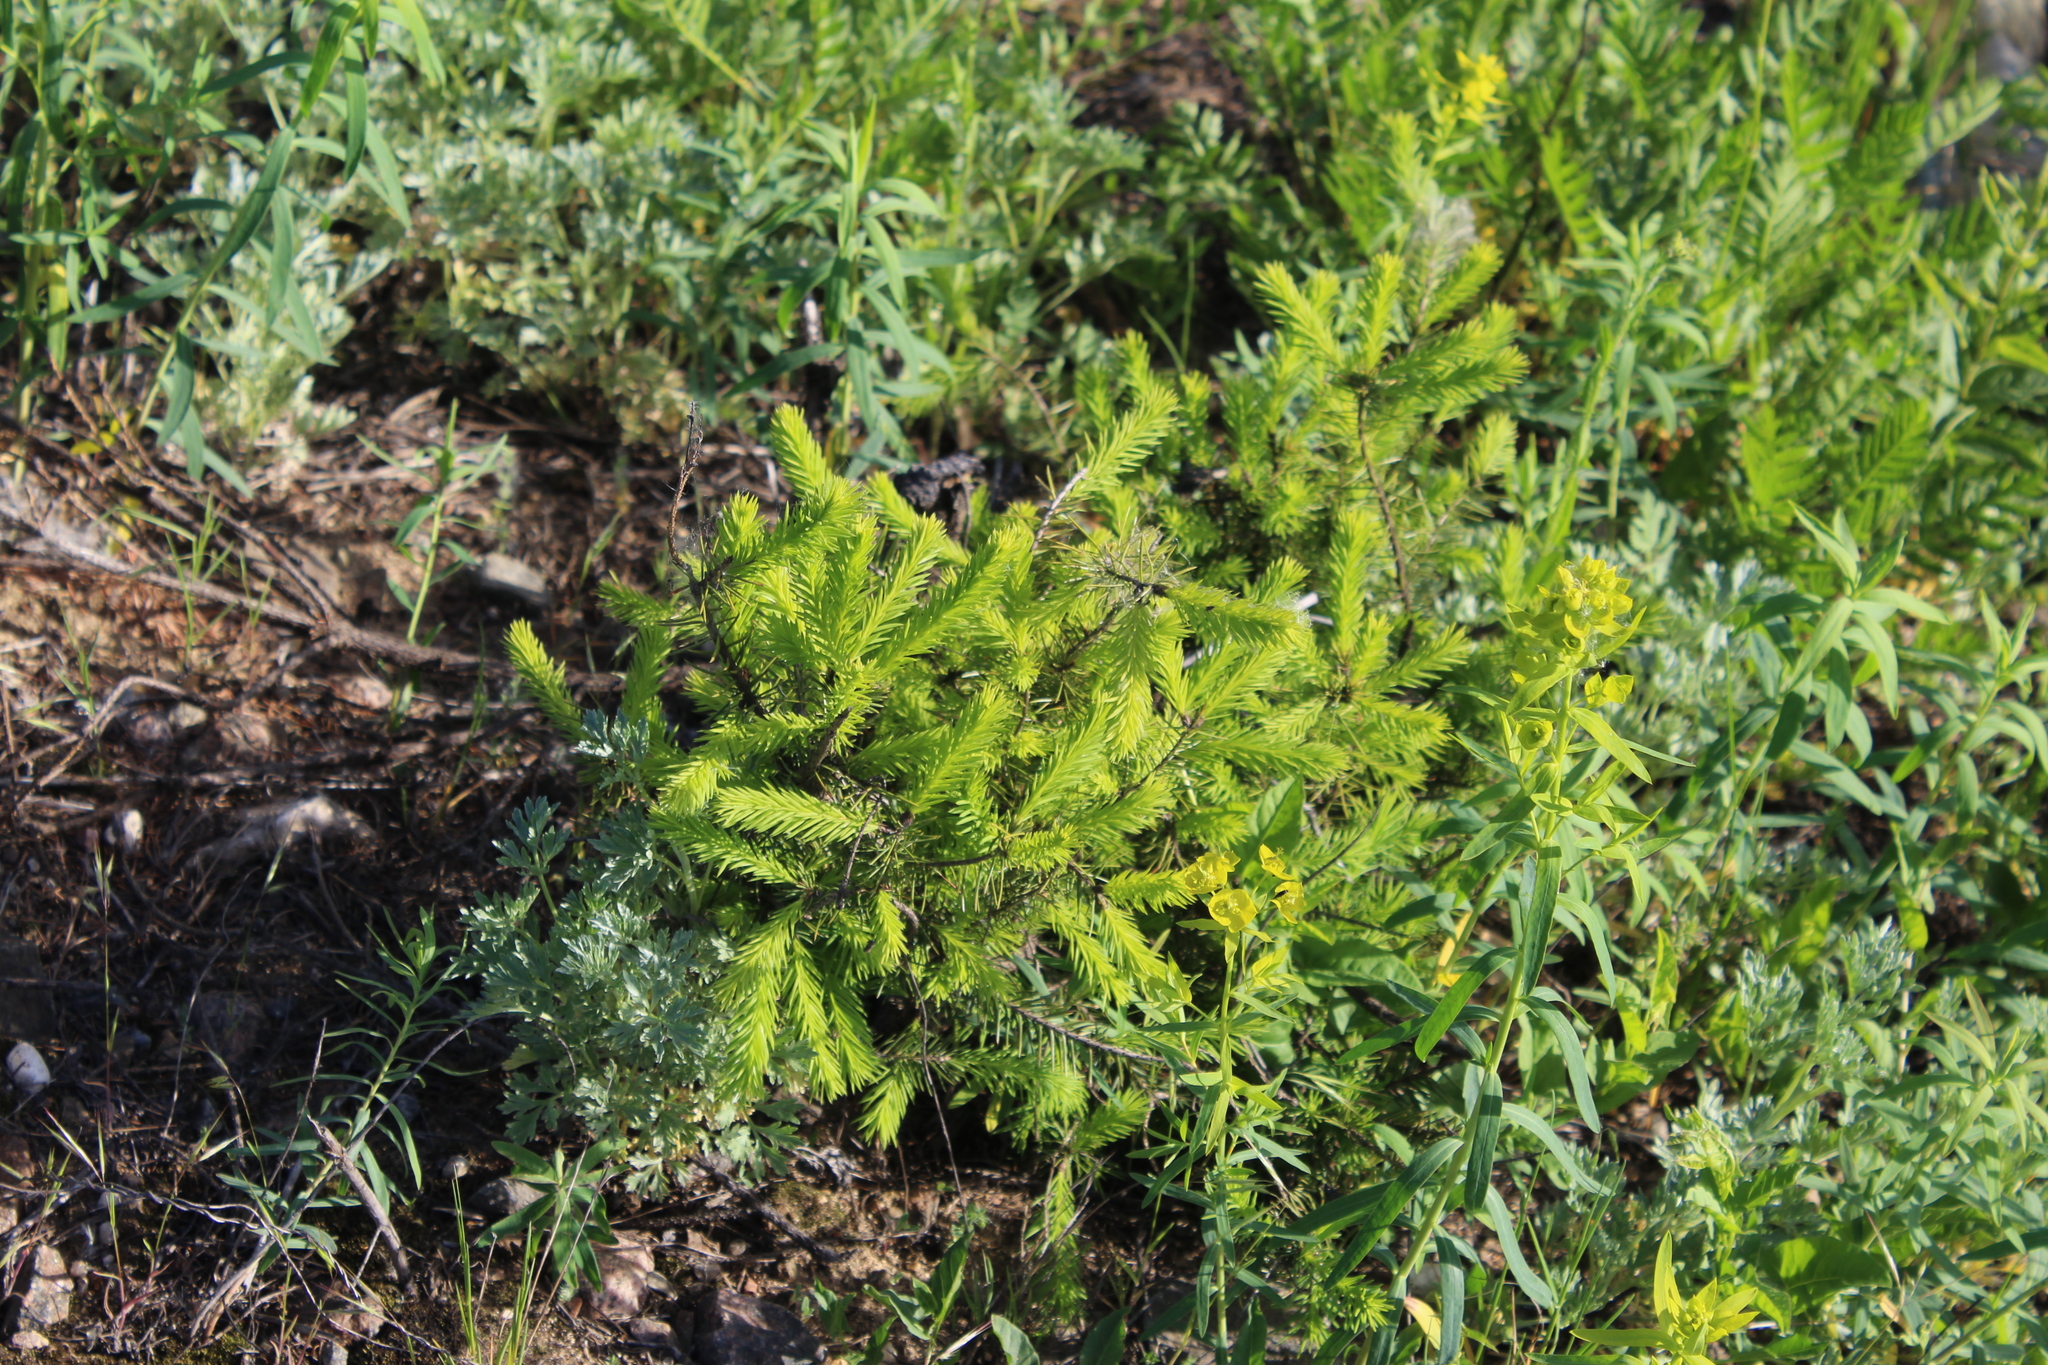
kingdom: Plantae
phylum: Tracheophyta
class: Pinopsida
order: Pinales
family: Pinaceae
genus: Picea
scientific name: Picea abies
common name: Norway spruce
